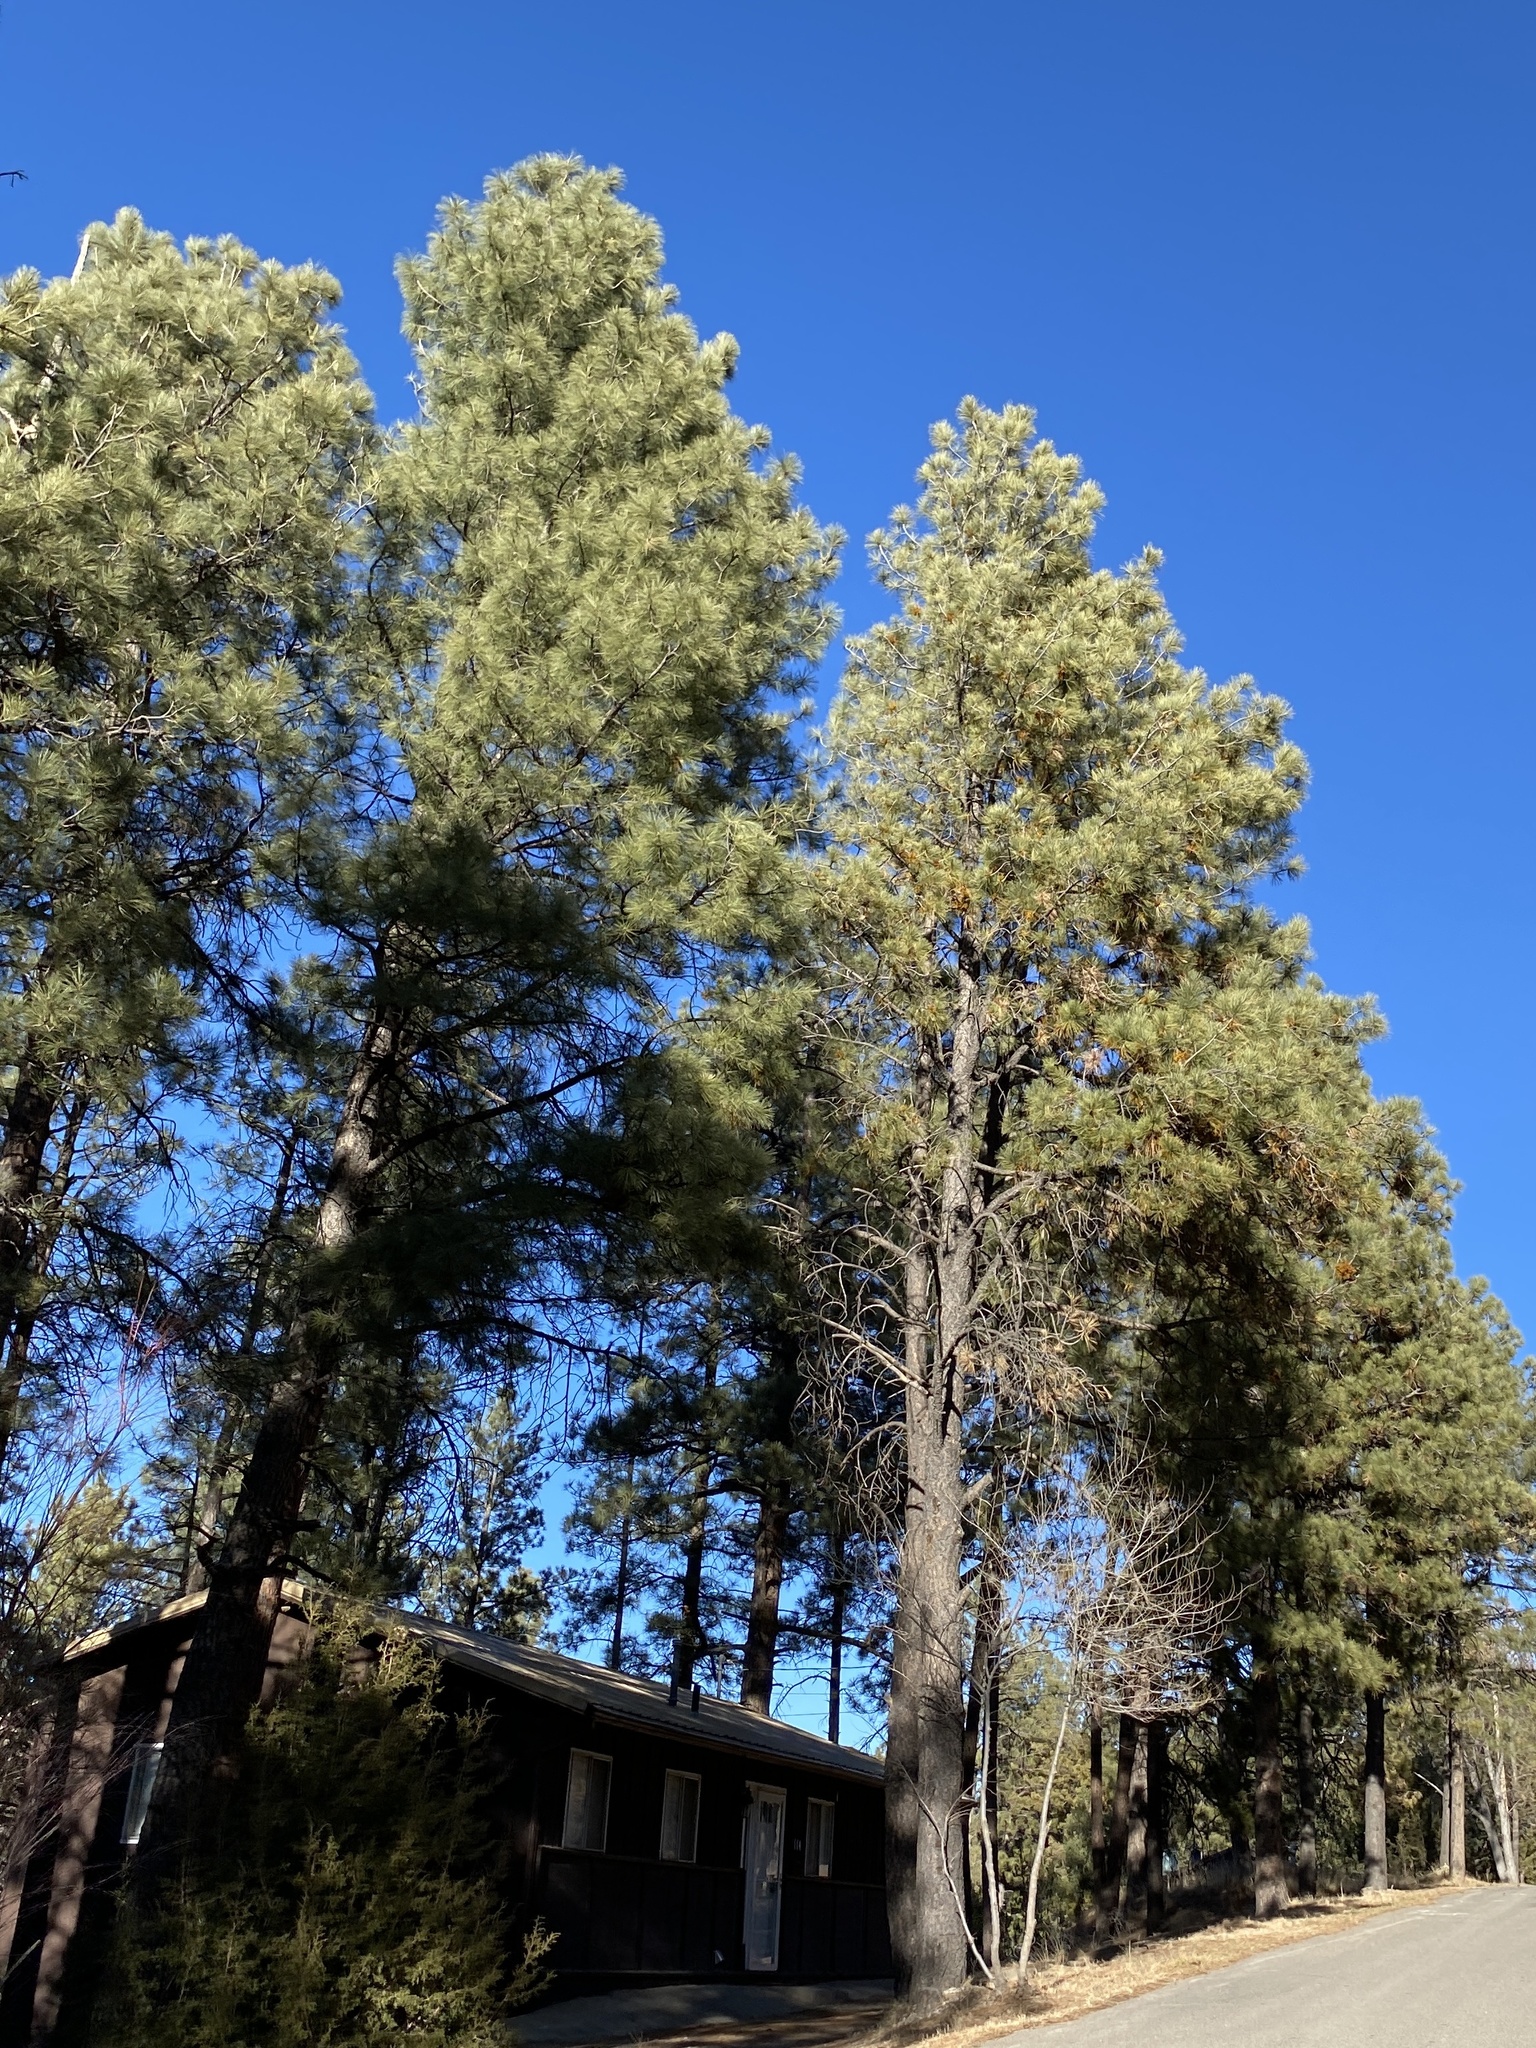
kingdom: Plantae
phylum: Tracheophyta
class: Pinopsida
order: Pinales
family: Pinaceae
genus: Pinus
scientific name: Pinus ponderosa
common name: Western yellow-pine
